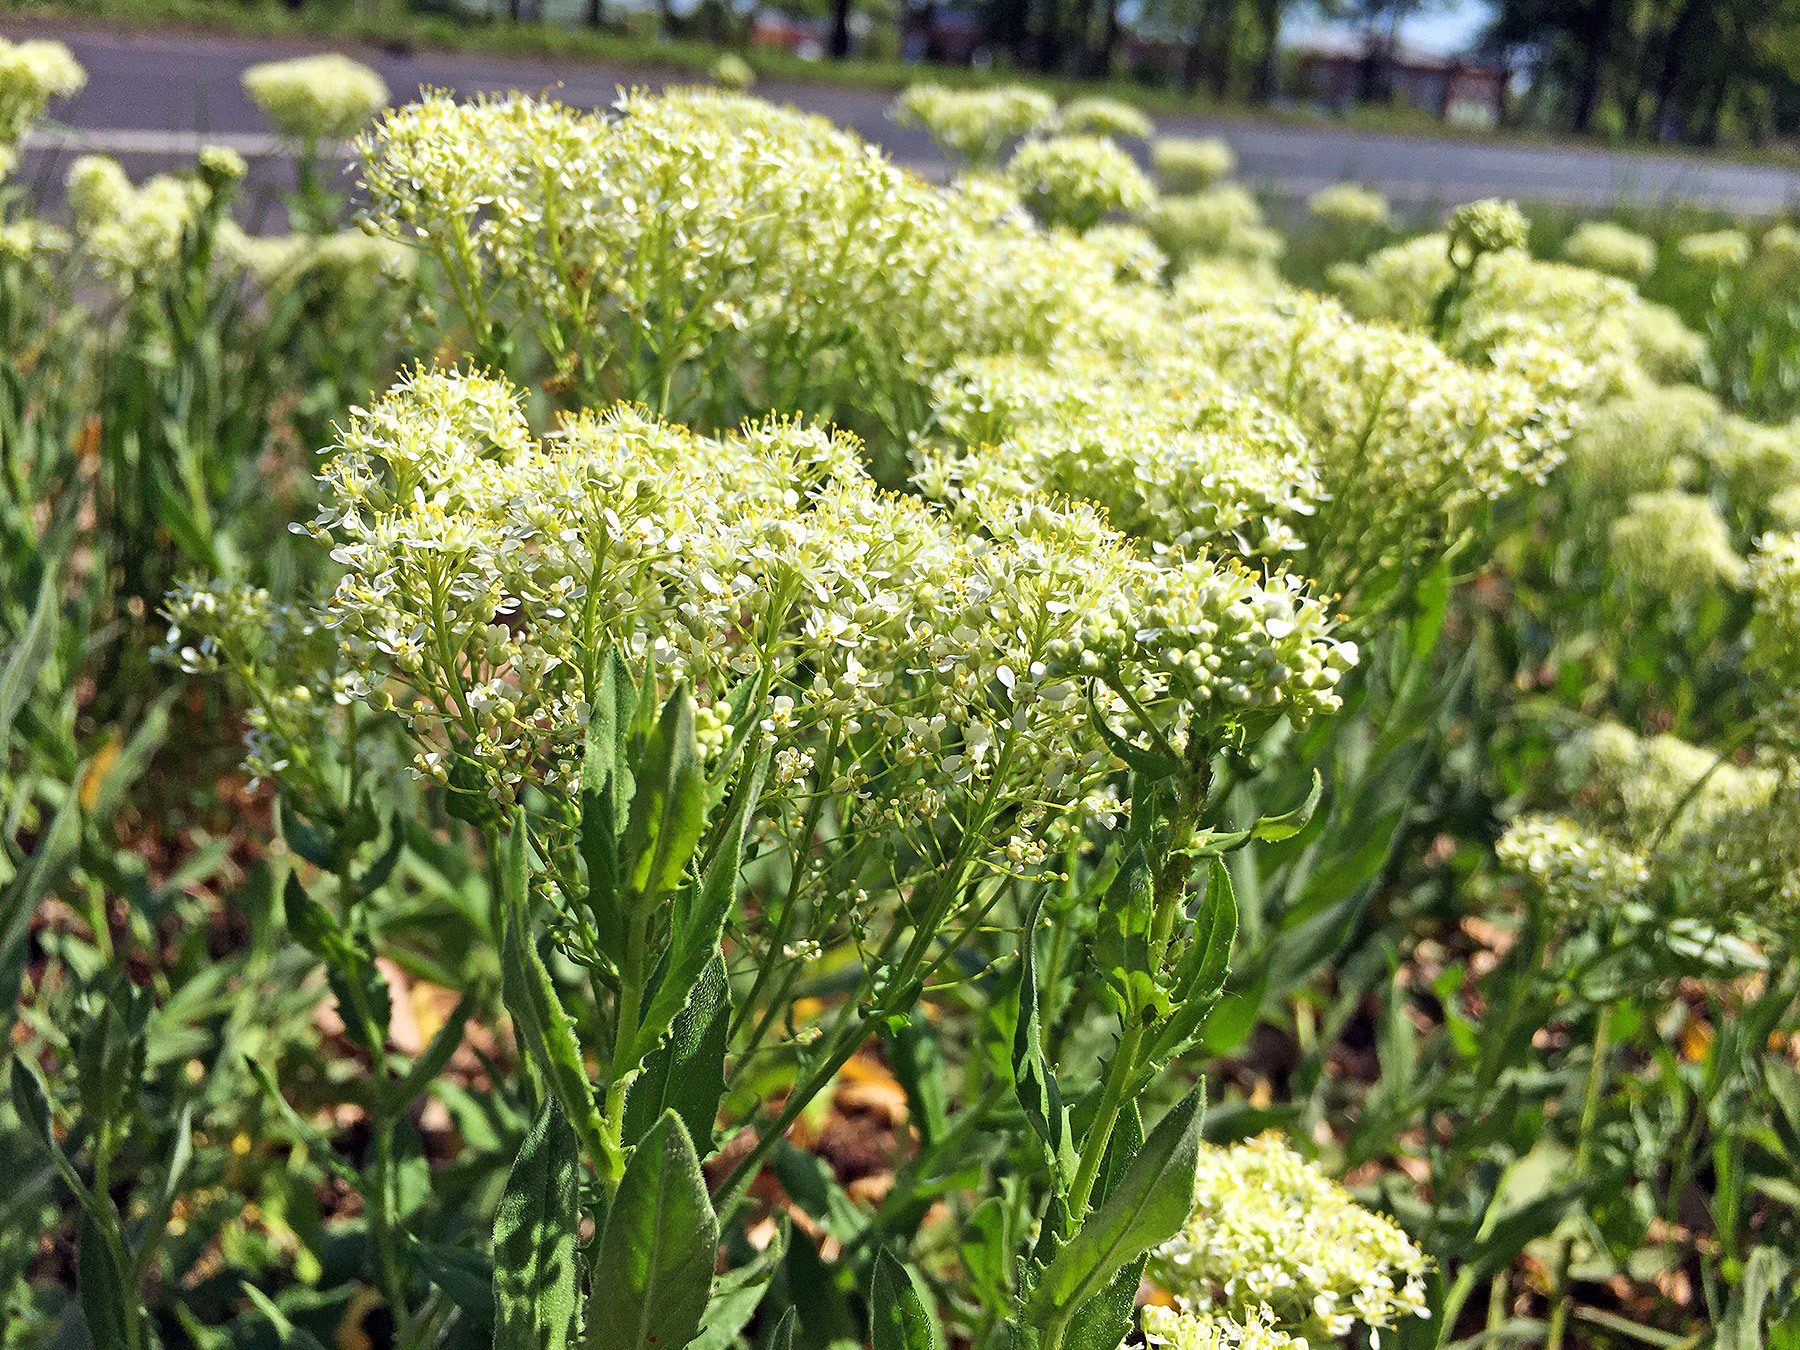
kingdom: Plantae
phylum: Tracheophyta
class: Magnoliopsida
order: Brassicales
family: Brassicaceae
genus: Lepidium
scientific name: Lepidium draba
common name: Hoary cress
